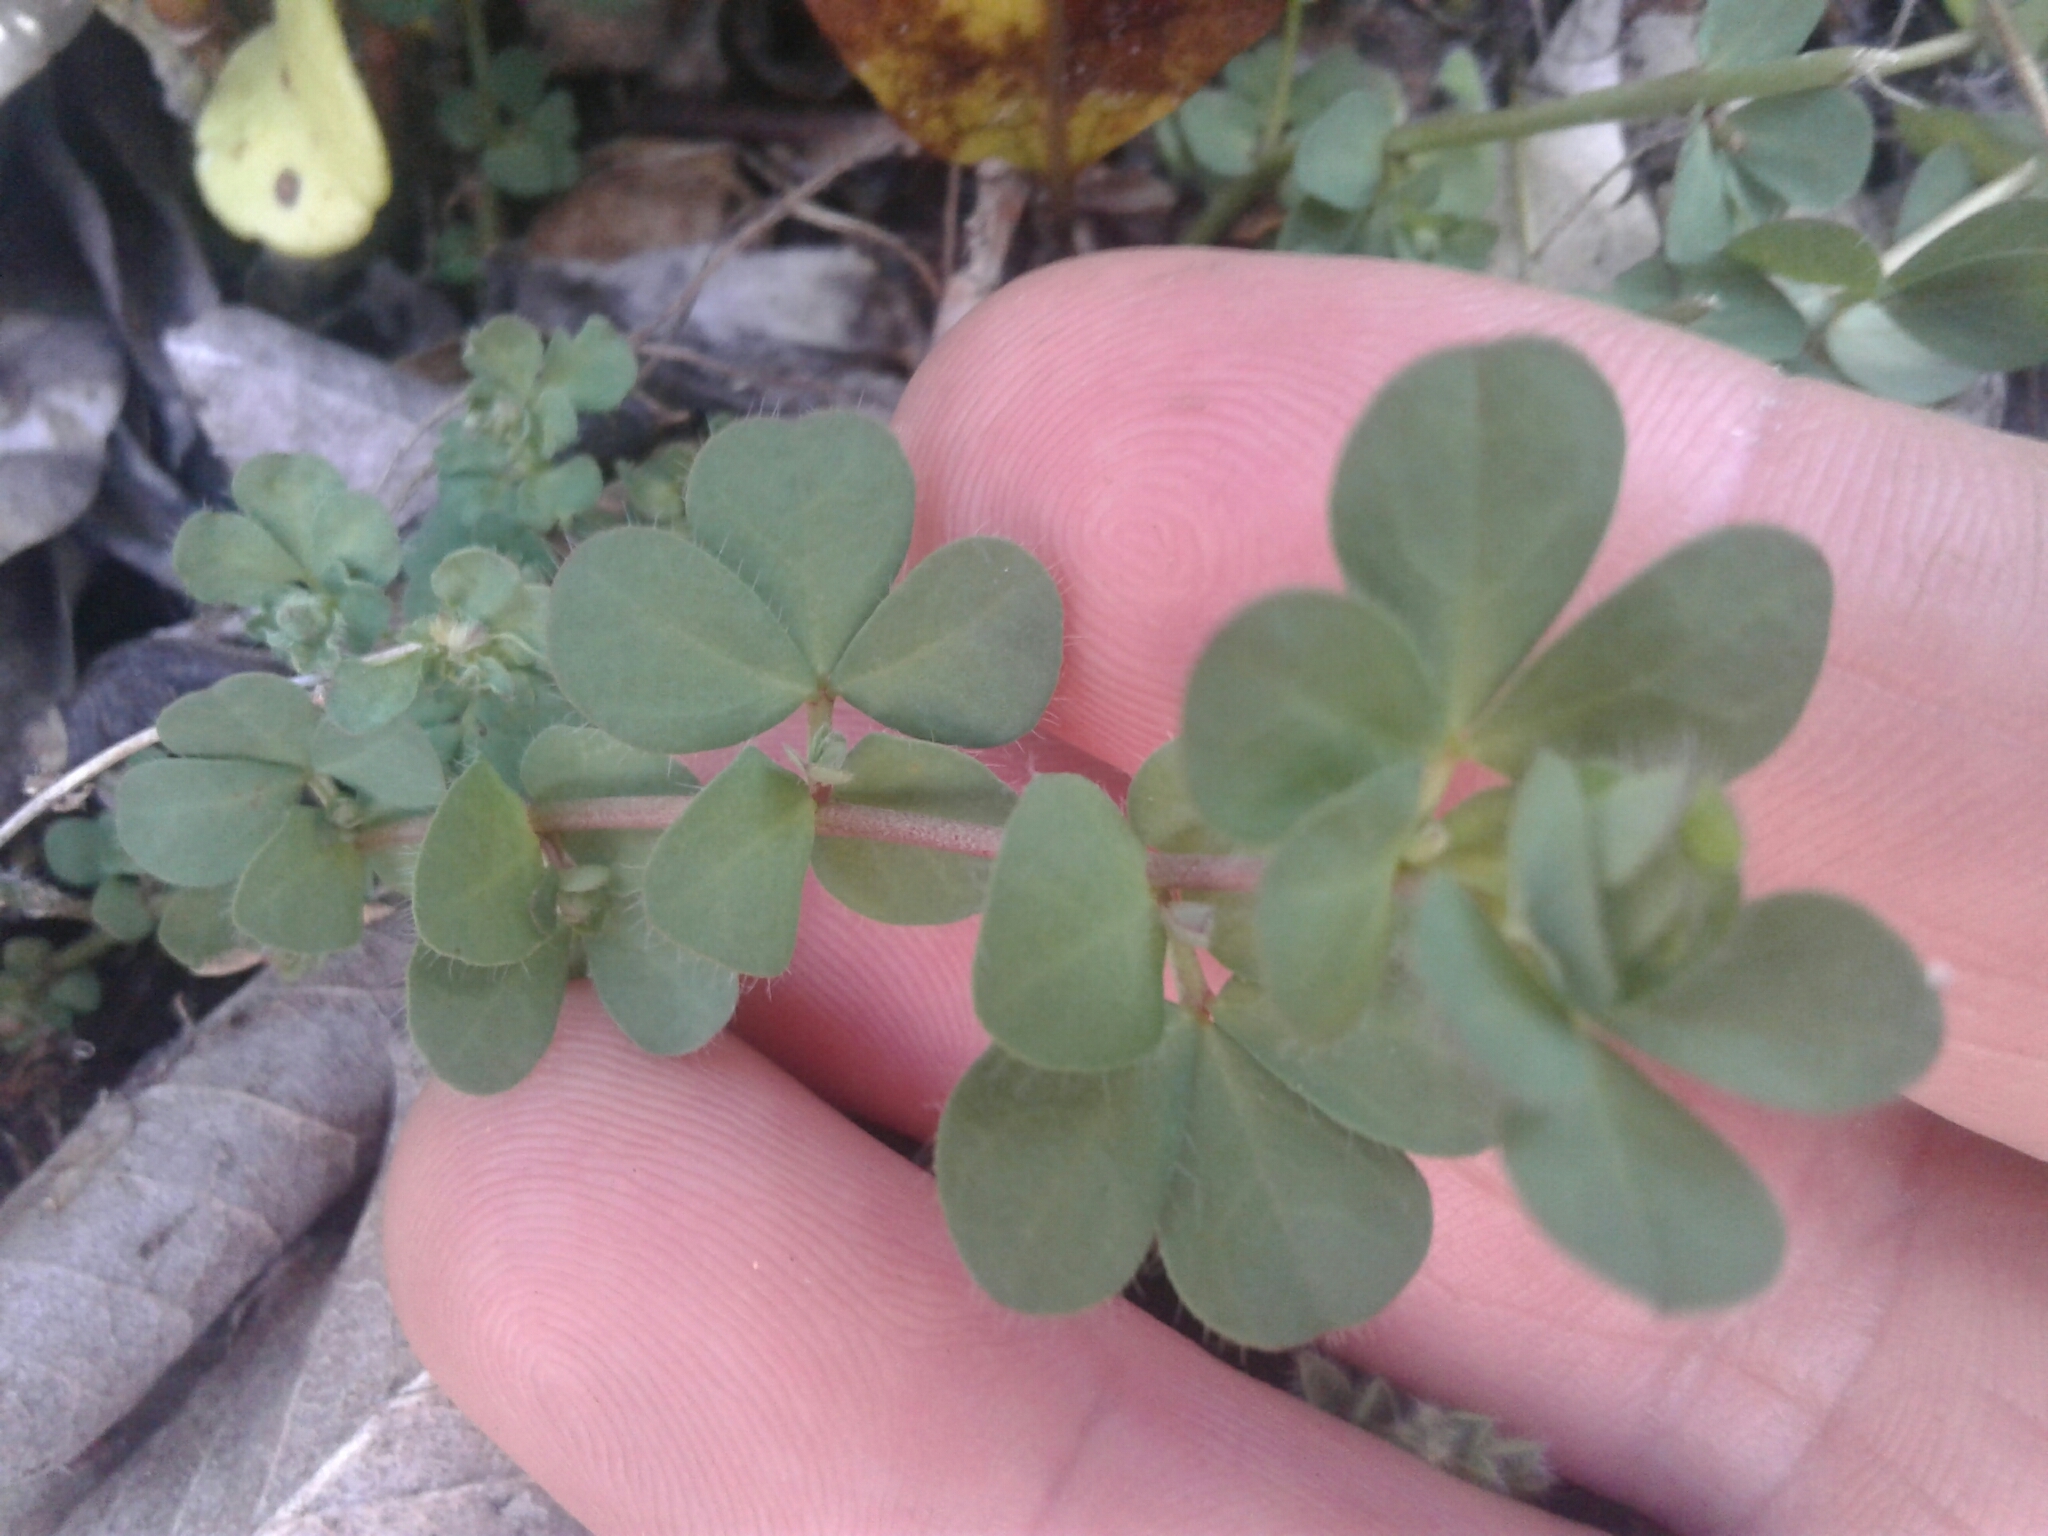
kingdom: Plantae
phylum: Tracheophyta
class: Magnoliopsida
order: Fabales
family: Fabaceae
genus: Lotus
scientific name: Lotus pedunculatus
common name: Greater birdsfoot-trefoil
